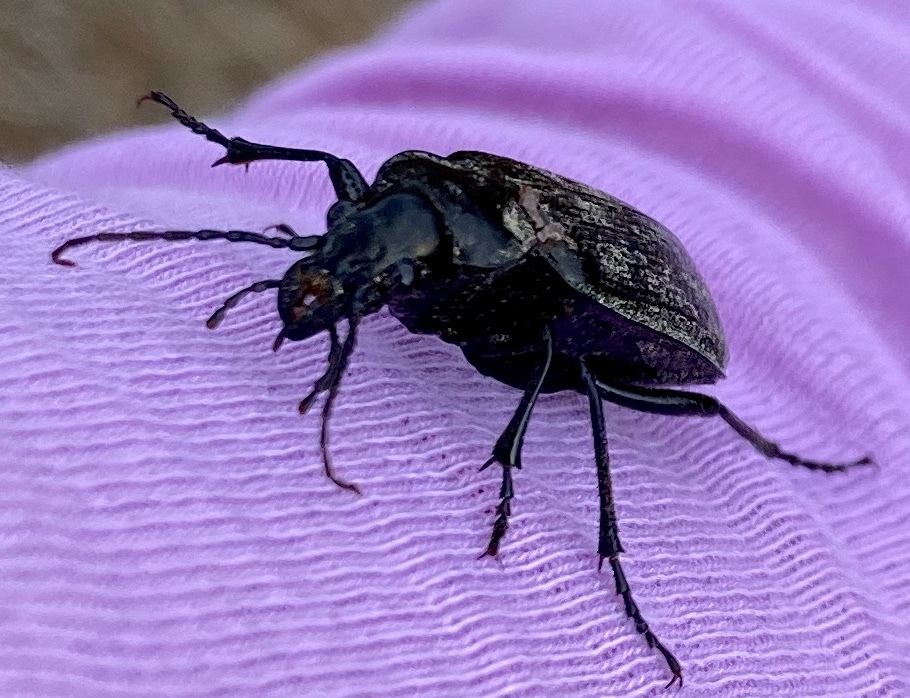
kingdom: Animalia
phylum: Arthropoda
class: Insecta
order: Coleoptera
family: Carabidae
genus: Calosoma
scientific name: Calosoma sayi
